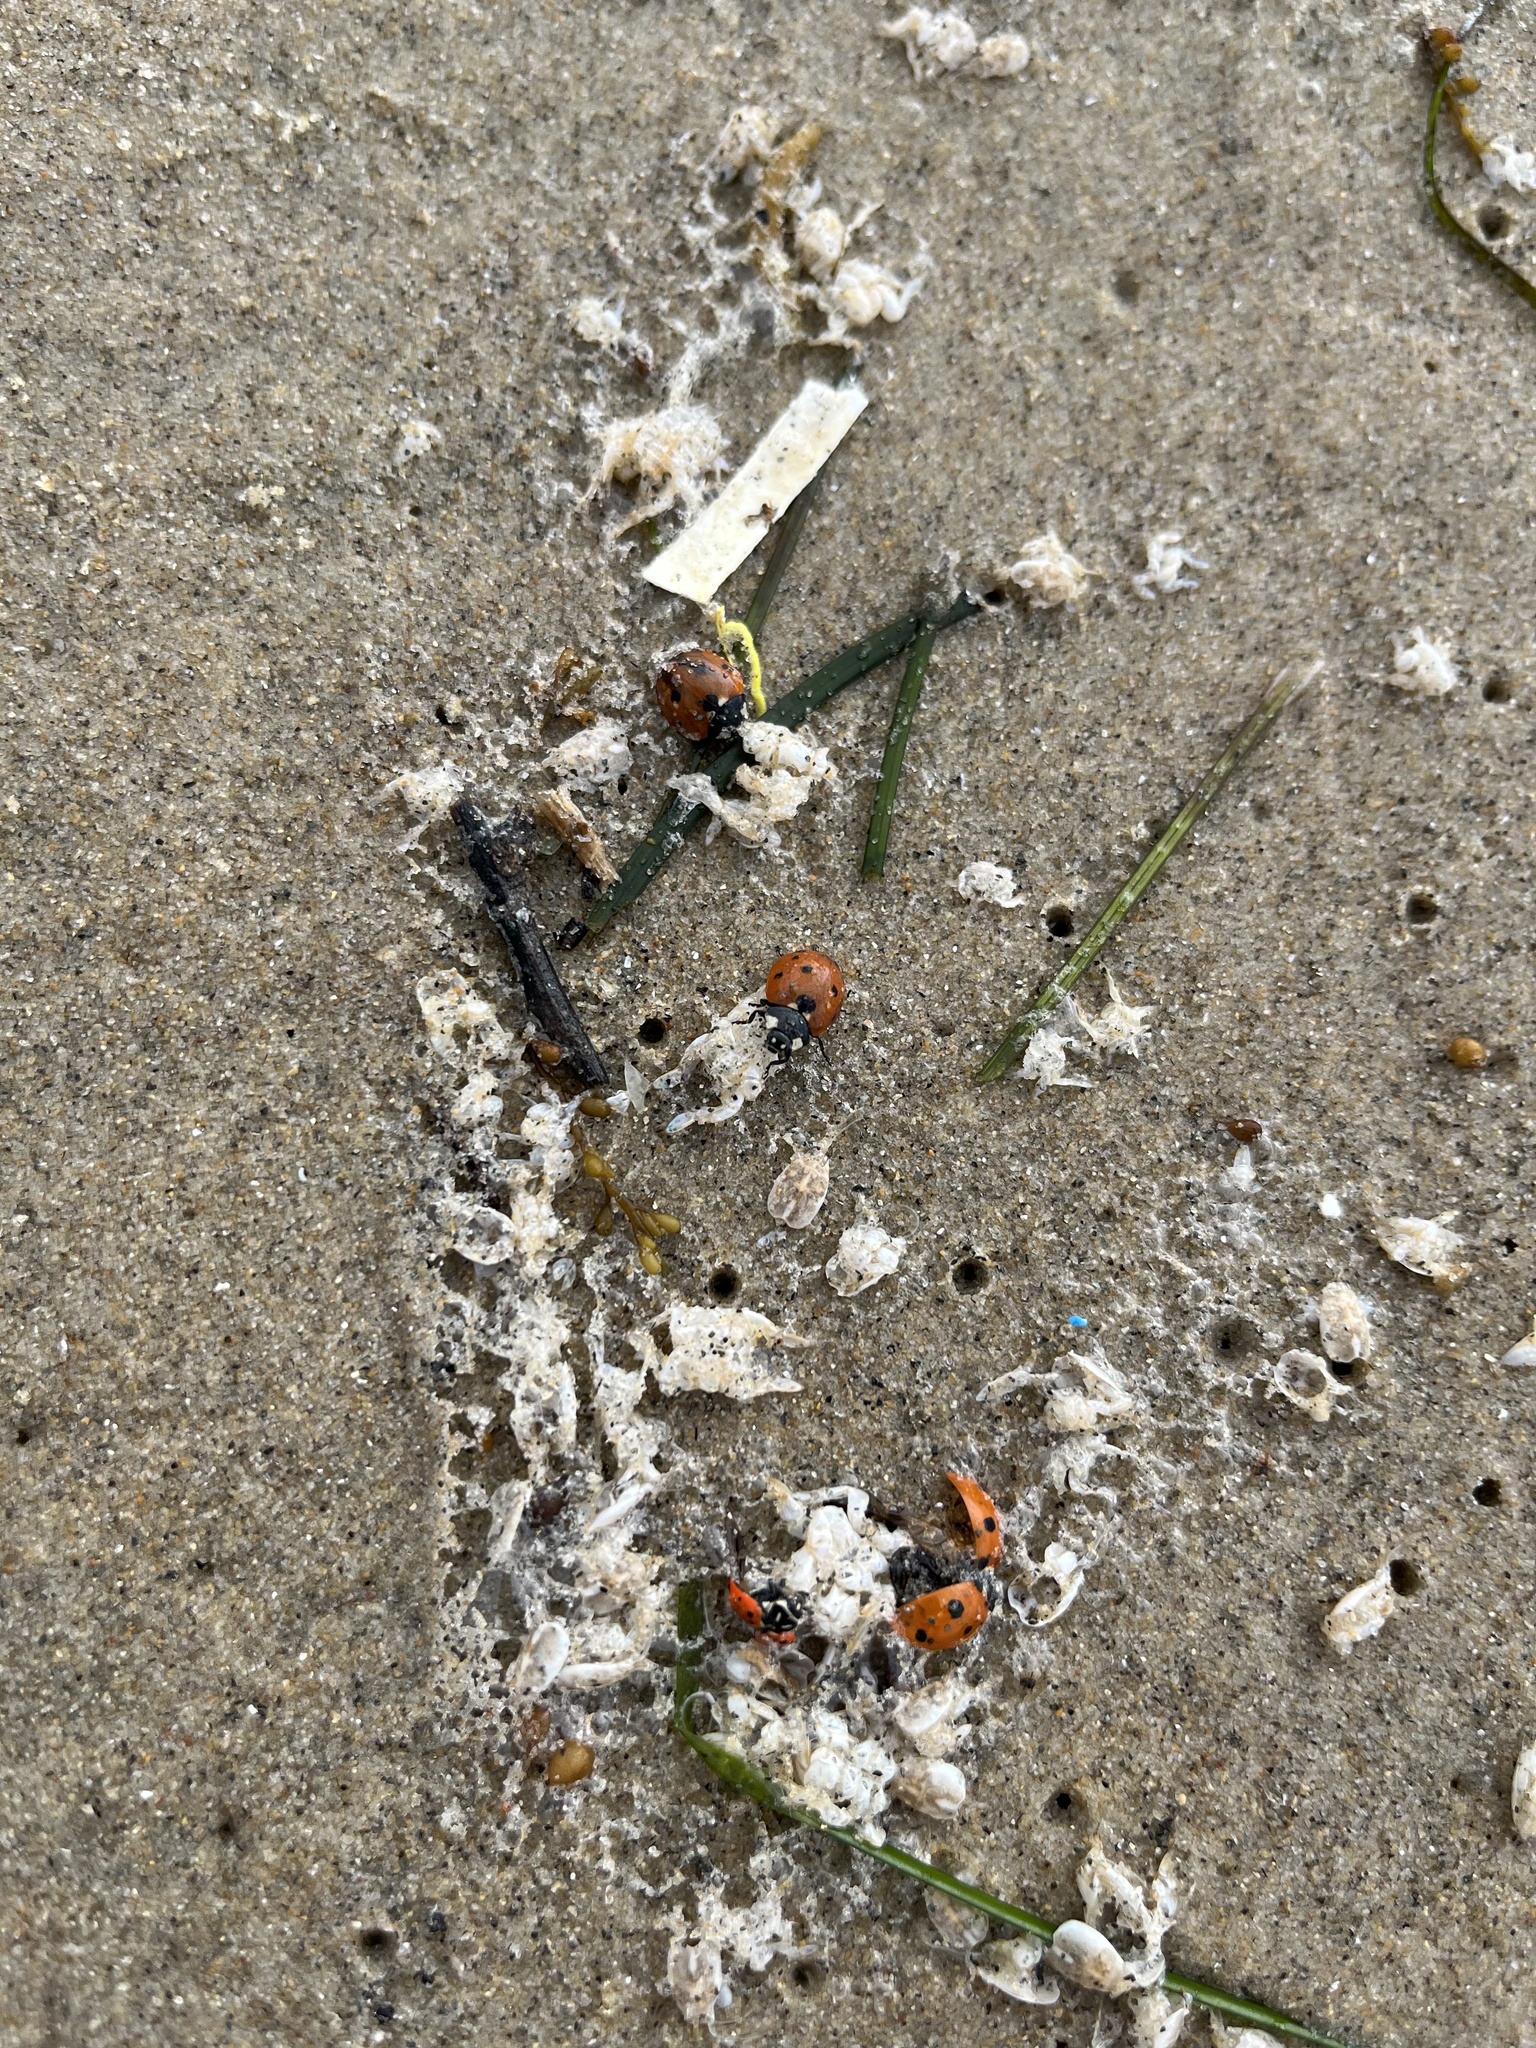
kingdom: Animalia
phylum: Arthropoda
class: Insecta
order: Coleoptera
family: Coccinellidae
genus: Coccinella
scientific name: Coccinella septempunctata
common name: Sevenspotted lady beetle
